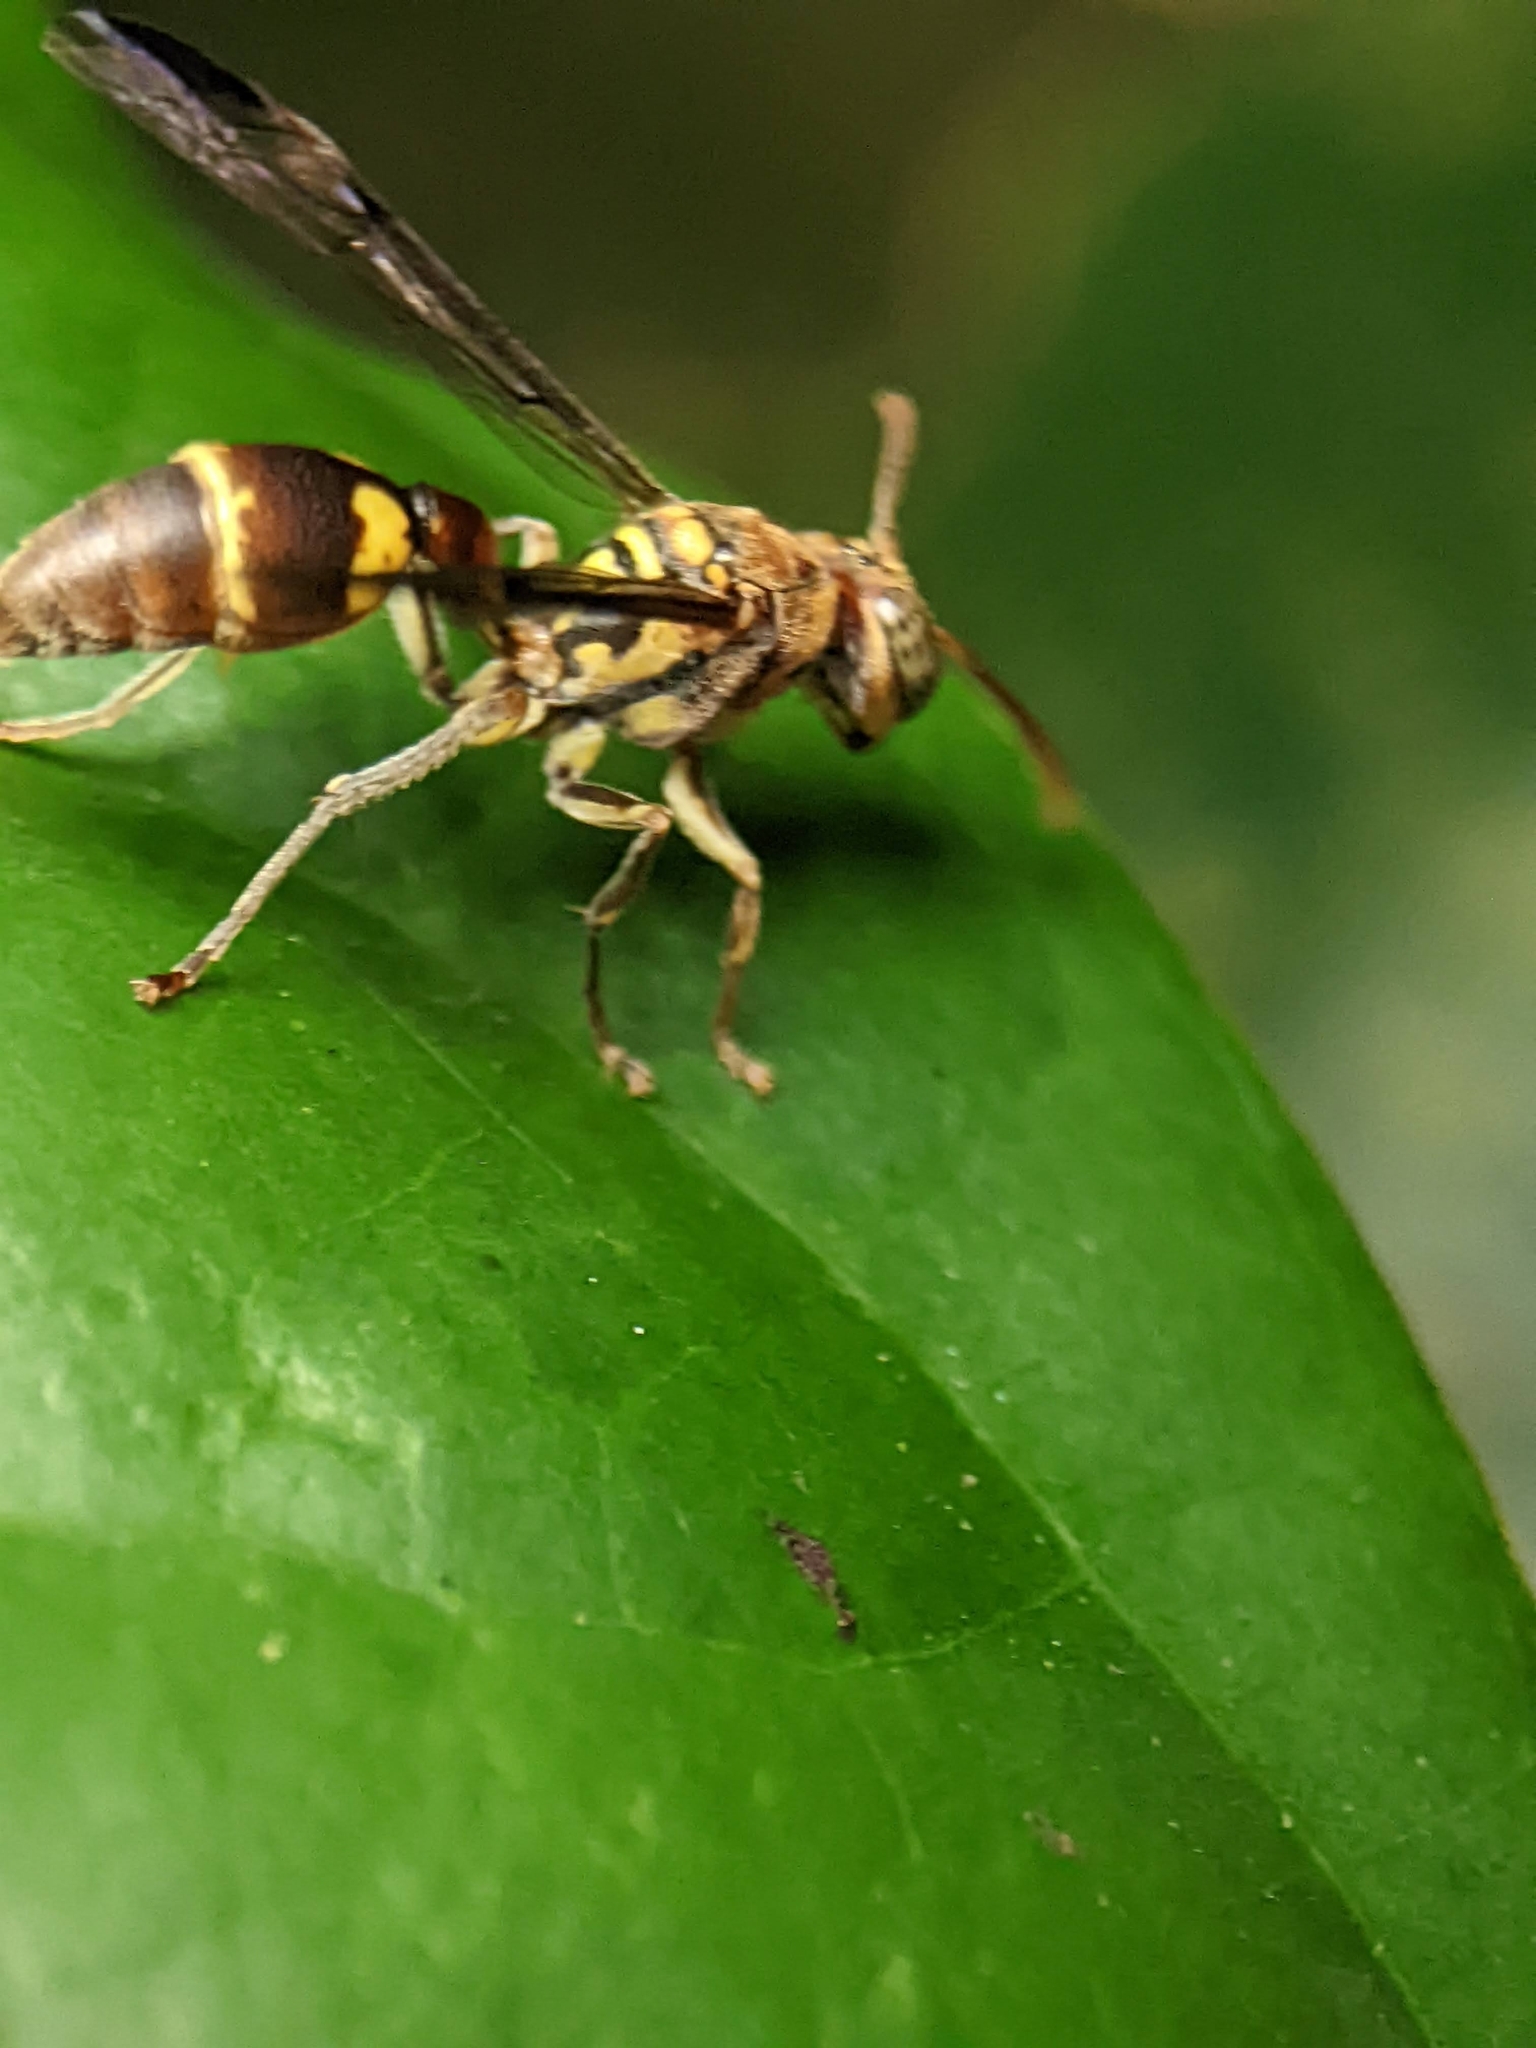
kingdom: Animalia
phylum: Arthropoda
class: Insecta
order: Hymenoptera
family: Vespidae
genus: Ropalidia
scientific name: Ropalidia stigma
